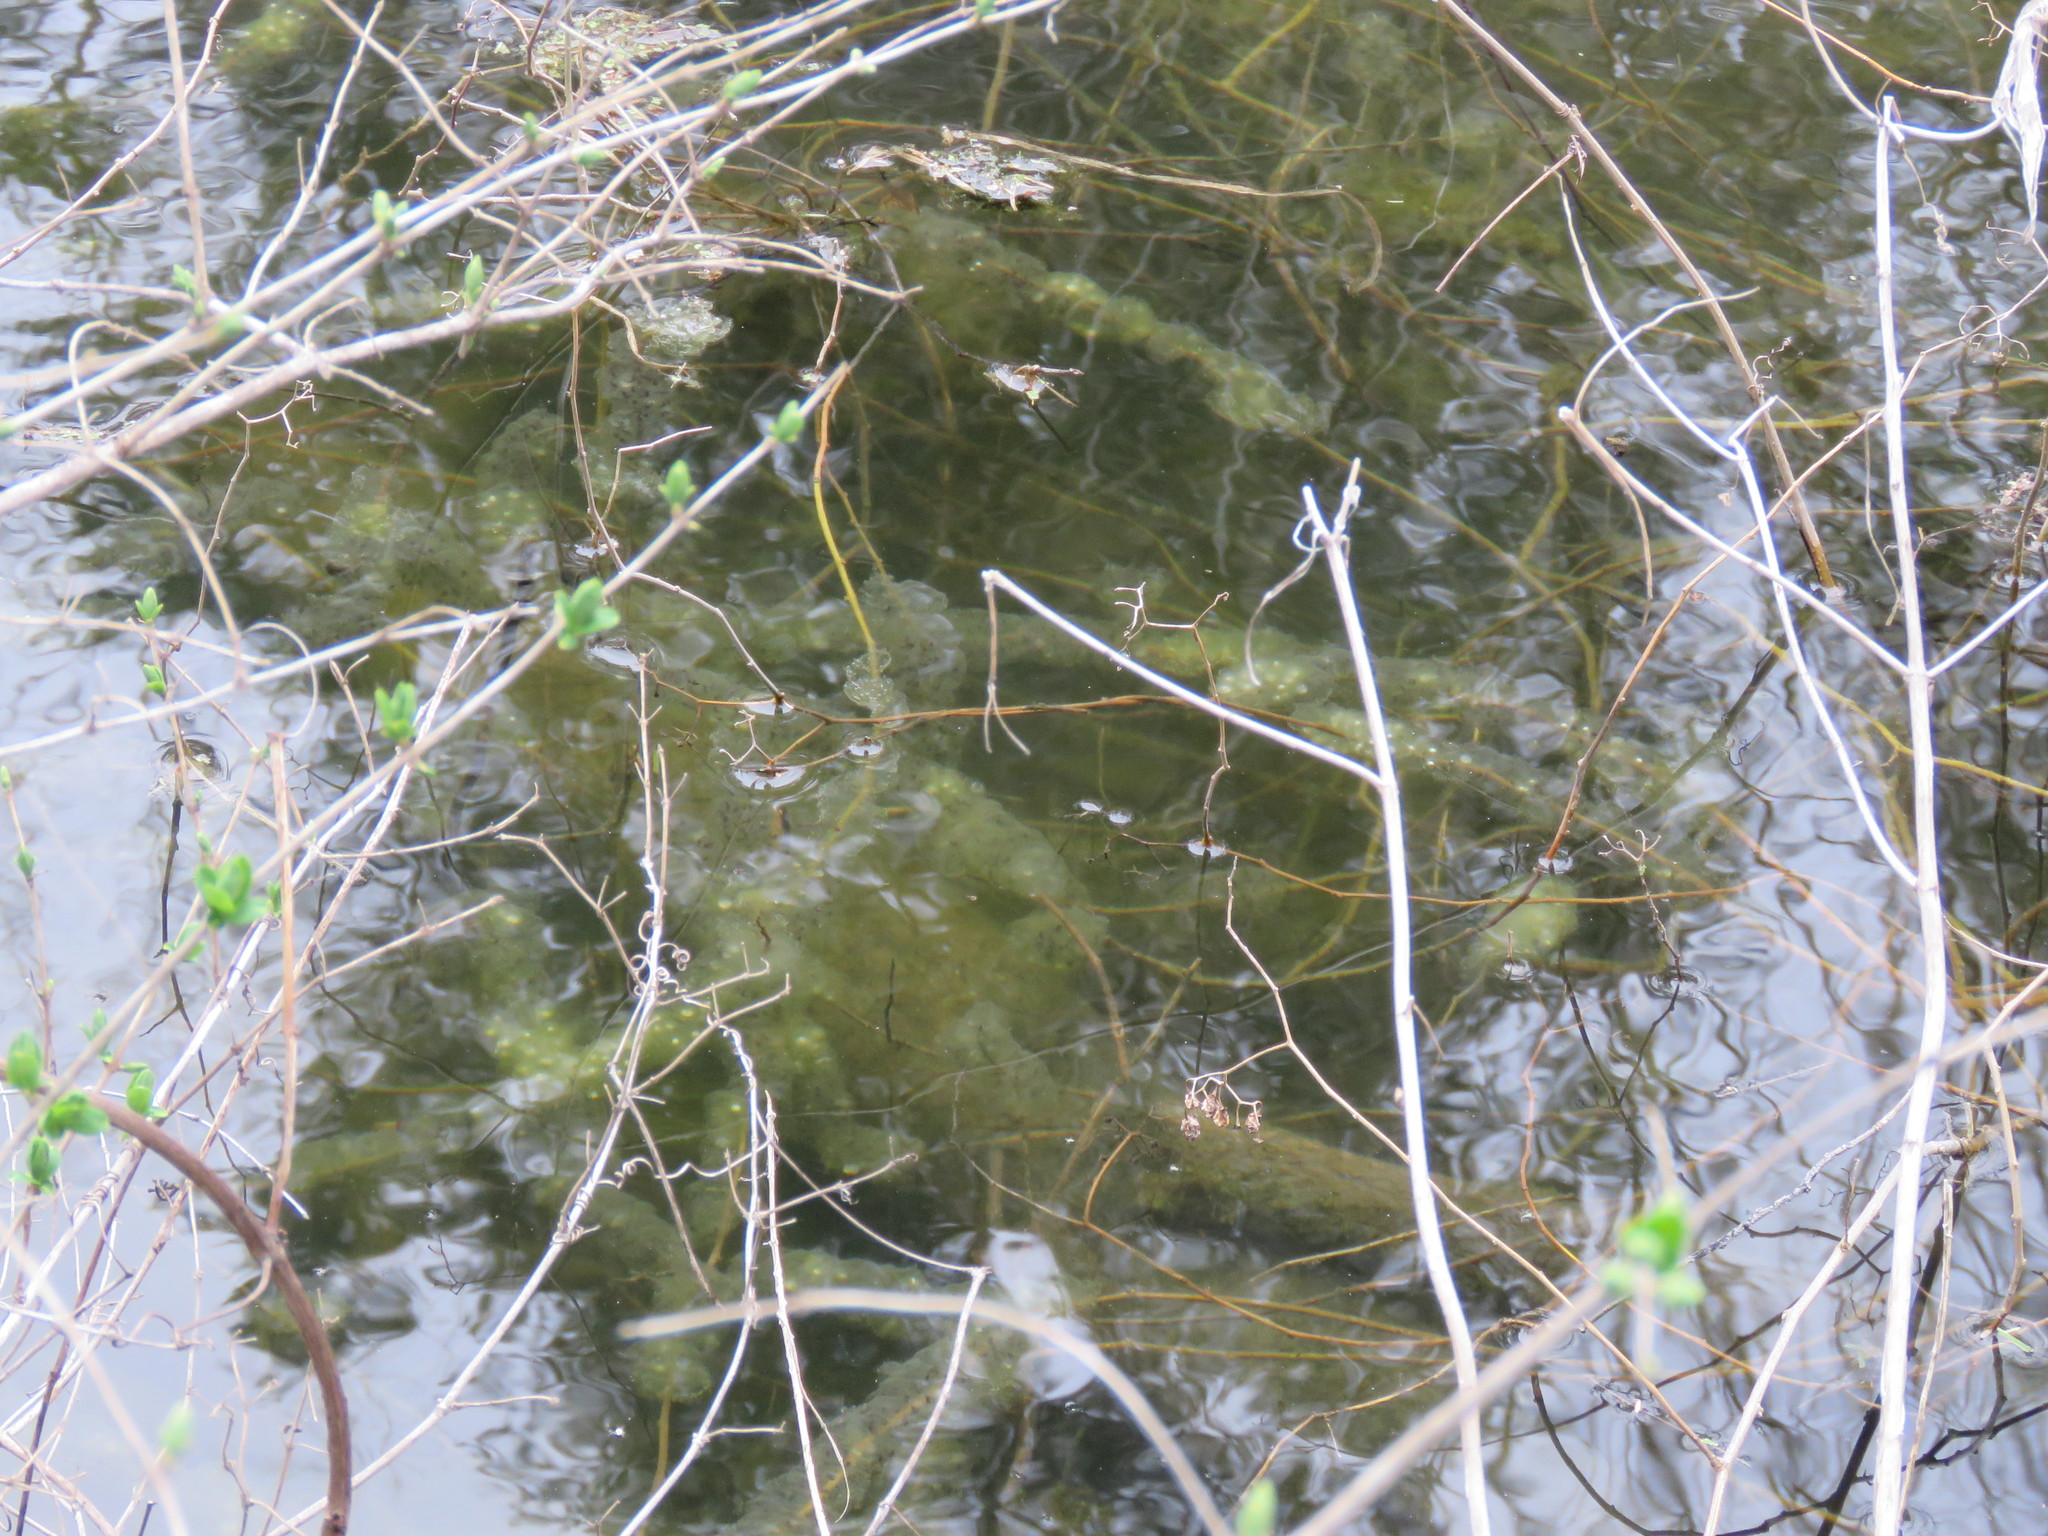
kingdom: Animalia
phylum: Chordata
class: Amphibia
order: Caudata
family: Ambystomatidae
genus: Ambystoma
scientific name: Ambystoma unisexual
